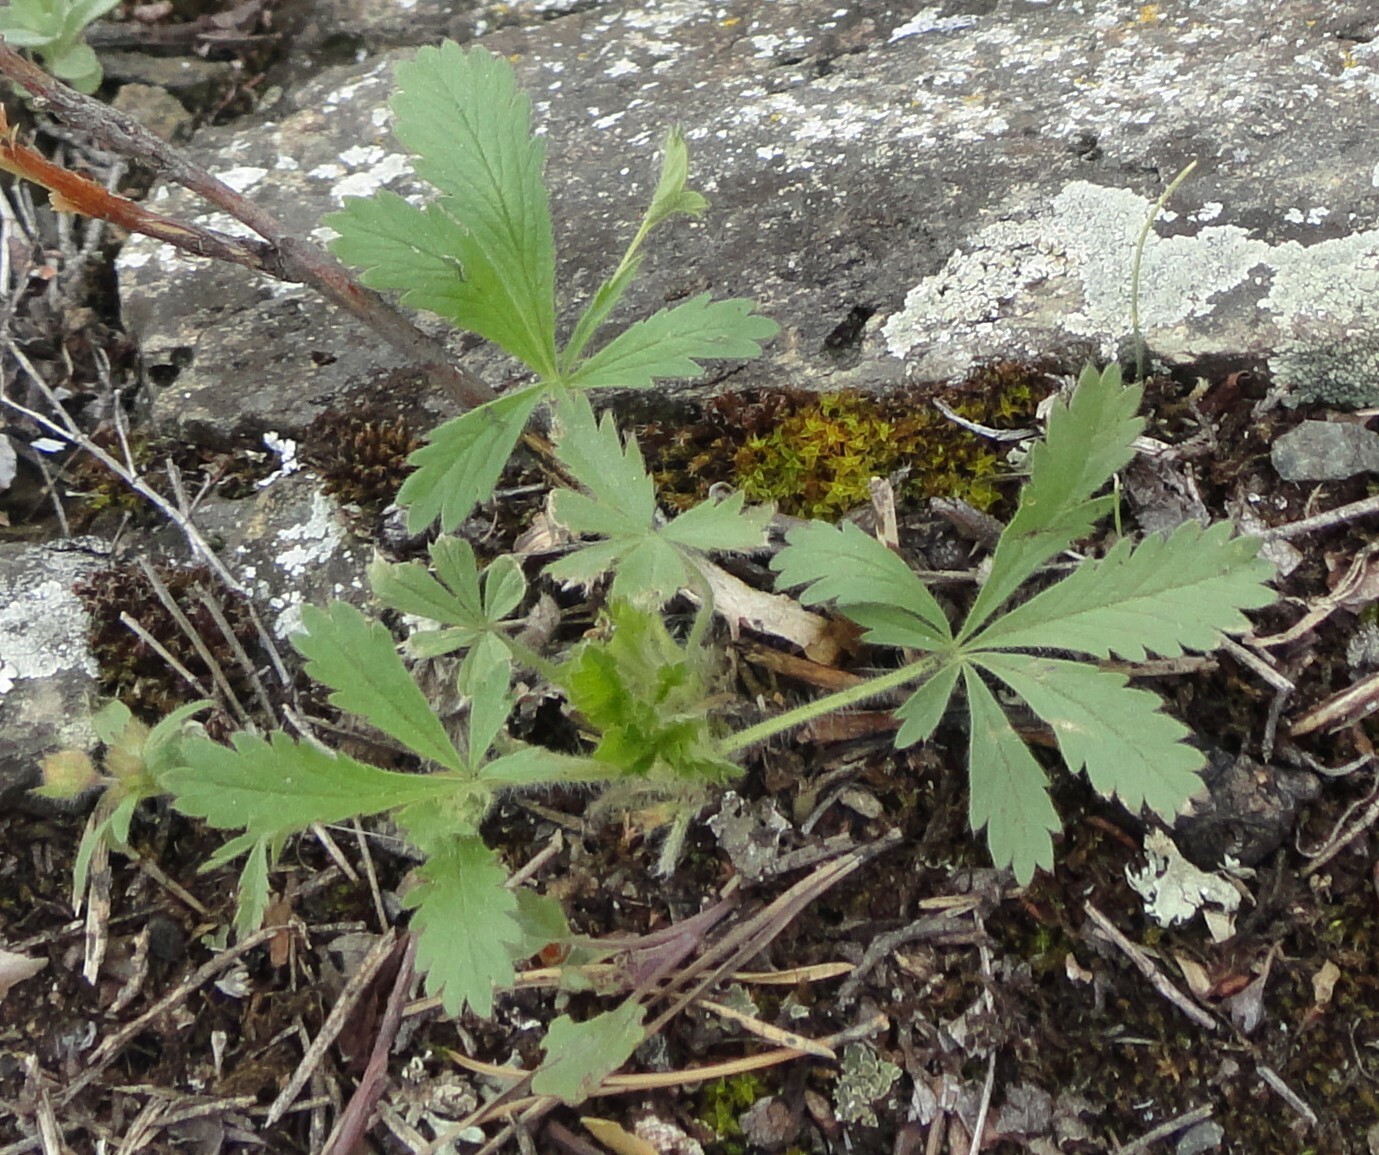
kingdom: Plantae
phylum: Tracheophyta
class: Magnoliopsida
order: Rosales
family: Rosaceae
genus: Potentilla
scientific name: Potentilla humifusa
